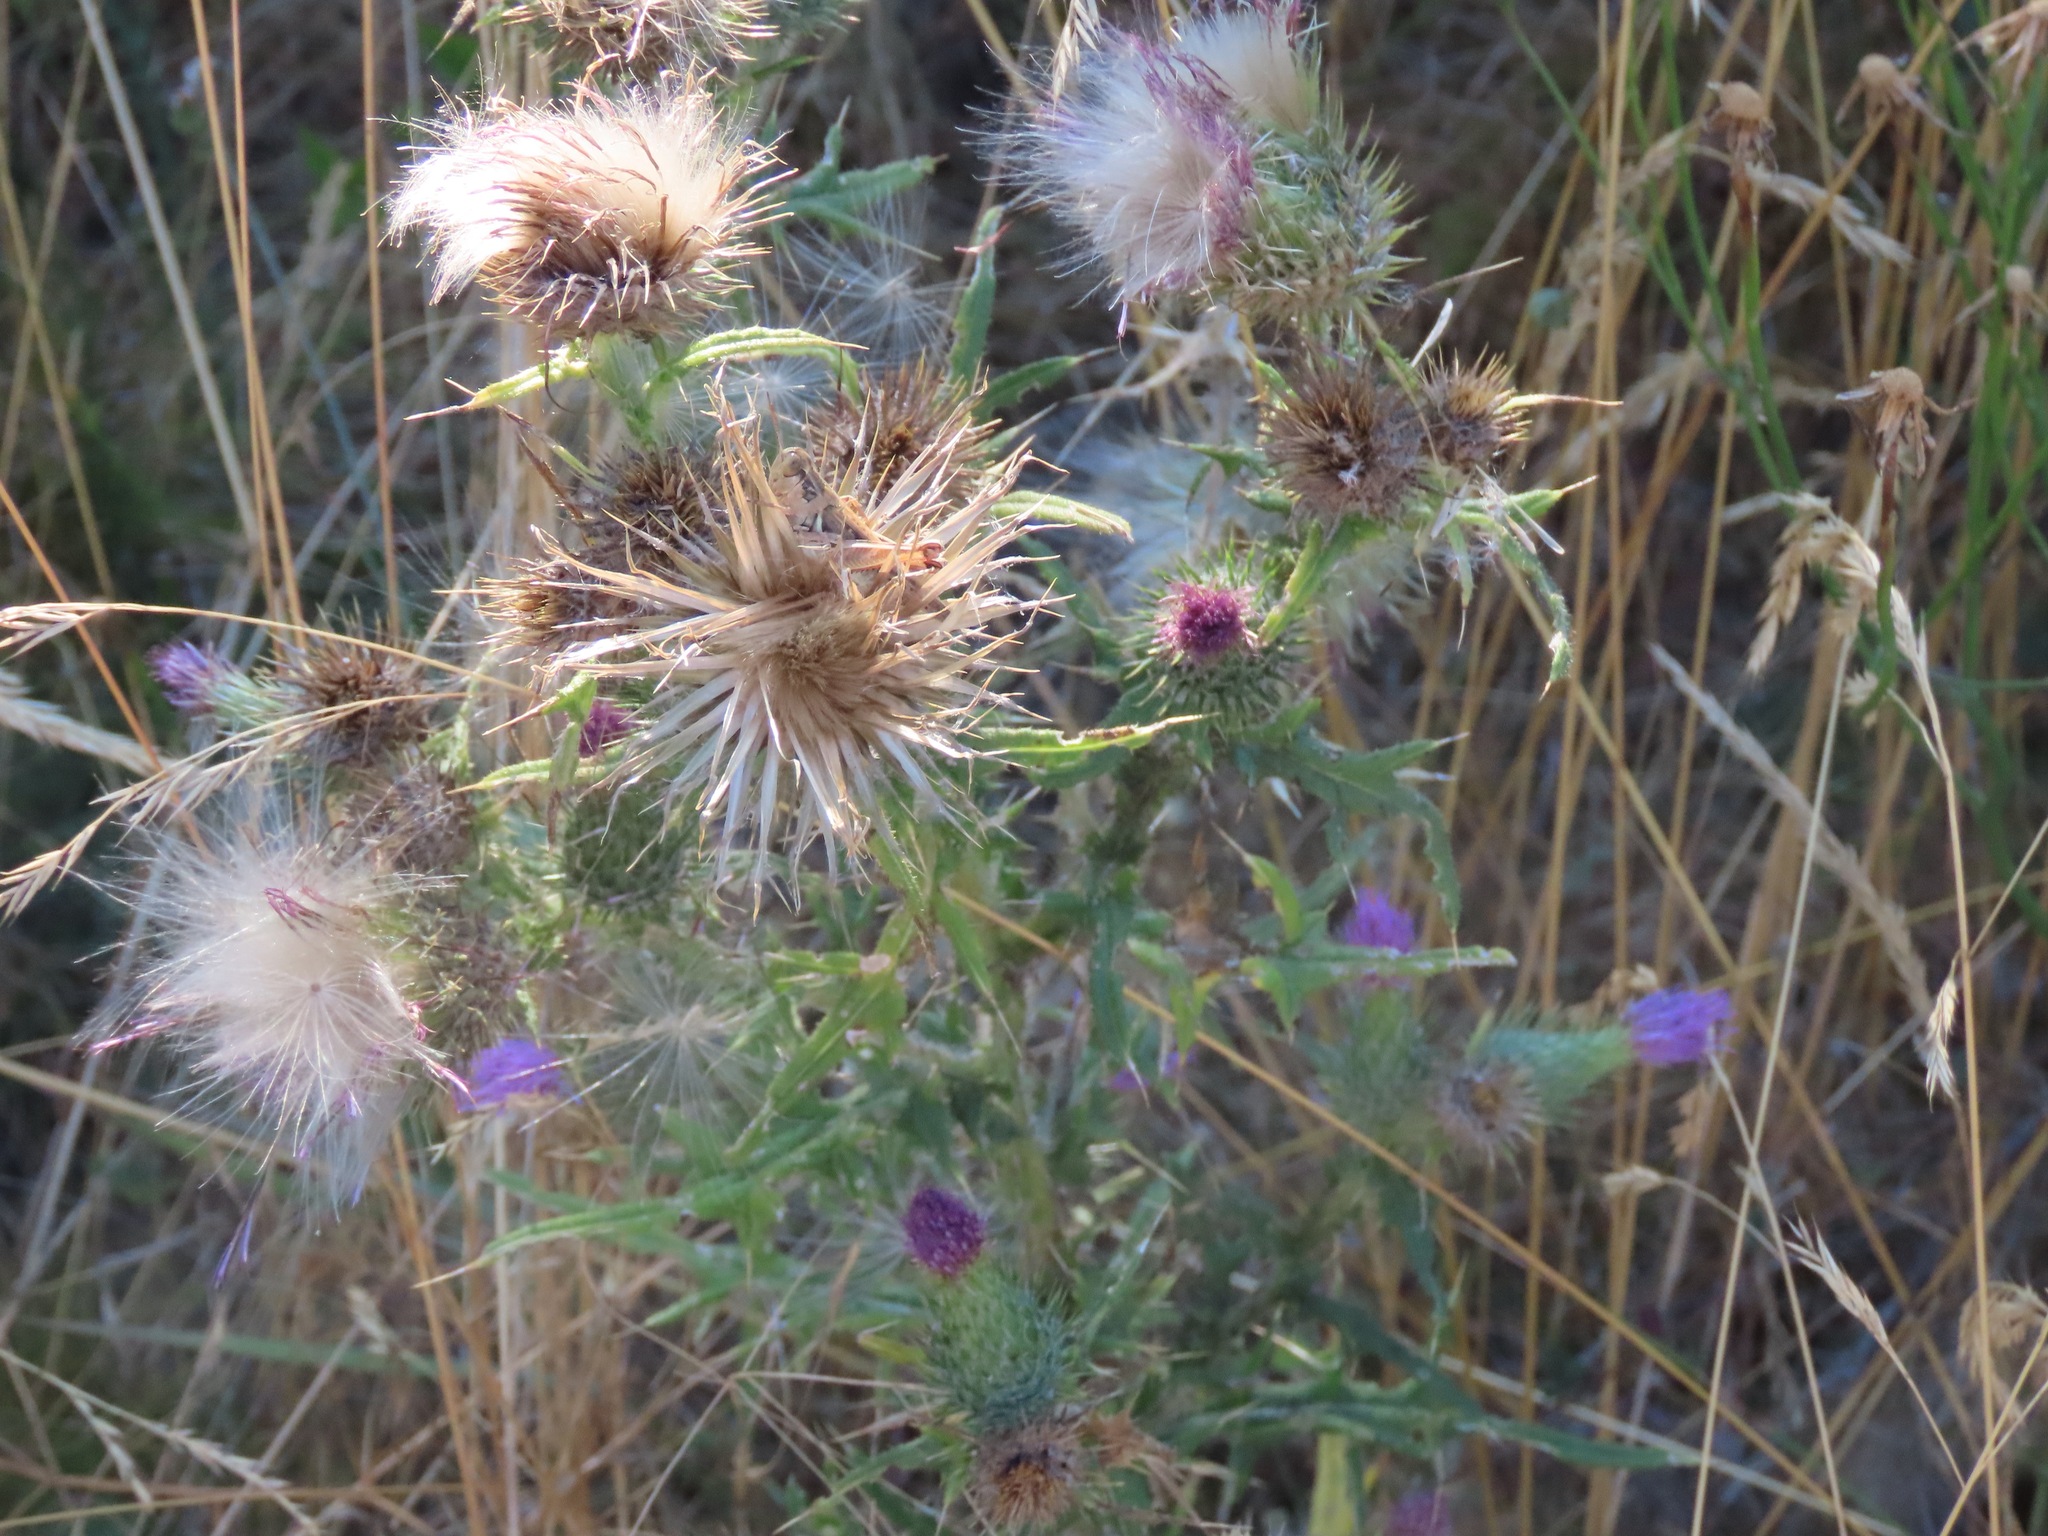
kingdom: Plantae
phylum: Tracheophyta
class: Magnoliopsida
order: Asterales
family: Asteraceae
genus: Cirsium
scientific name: Cirsium vulgare
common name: Bull thistle
